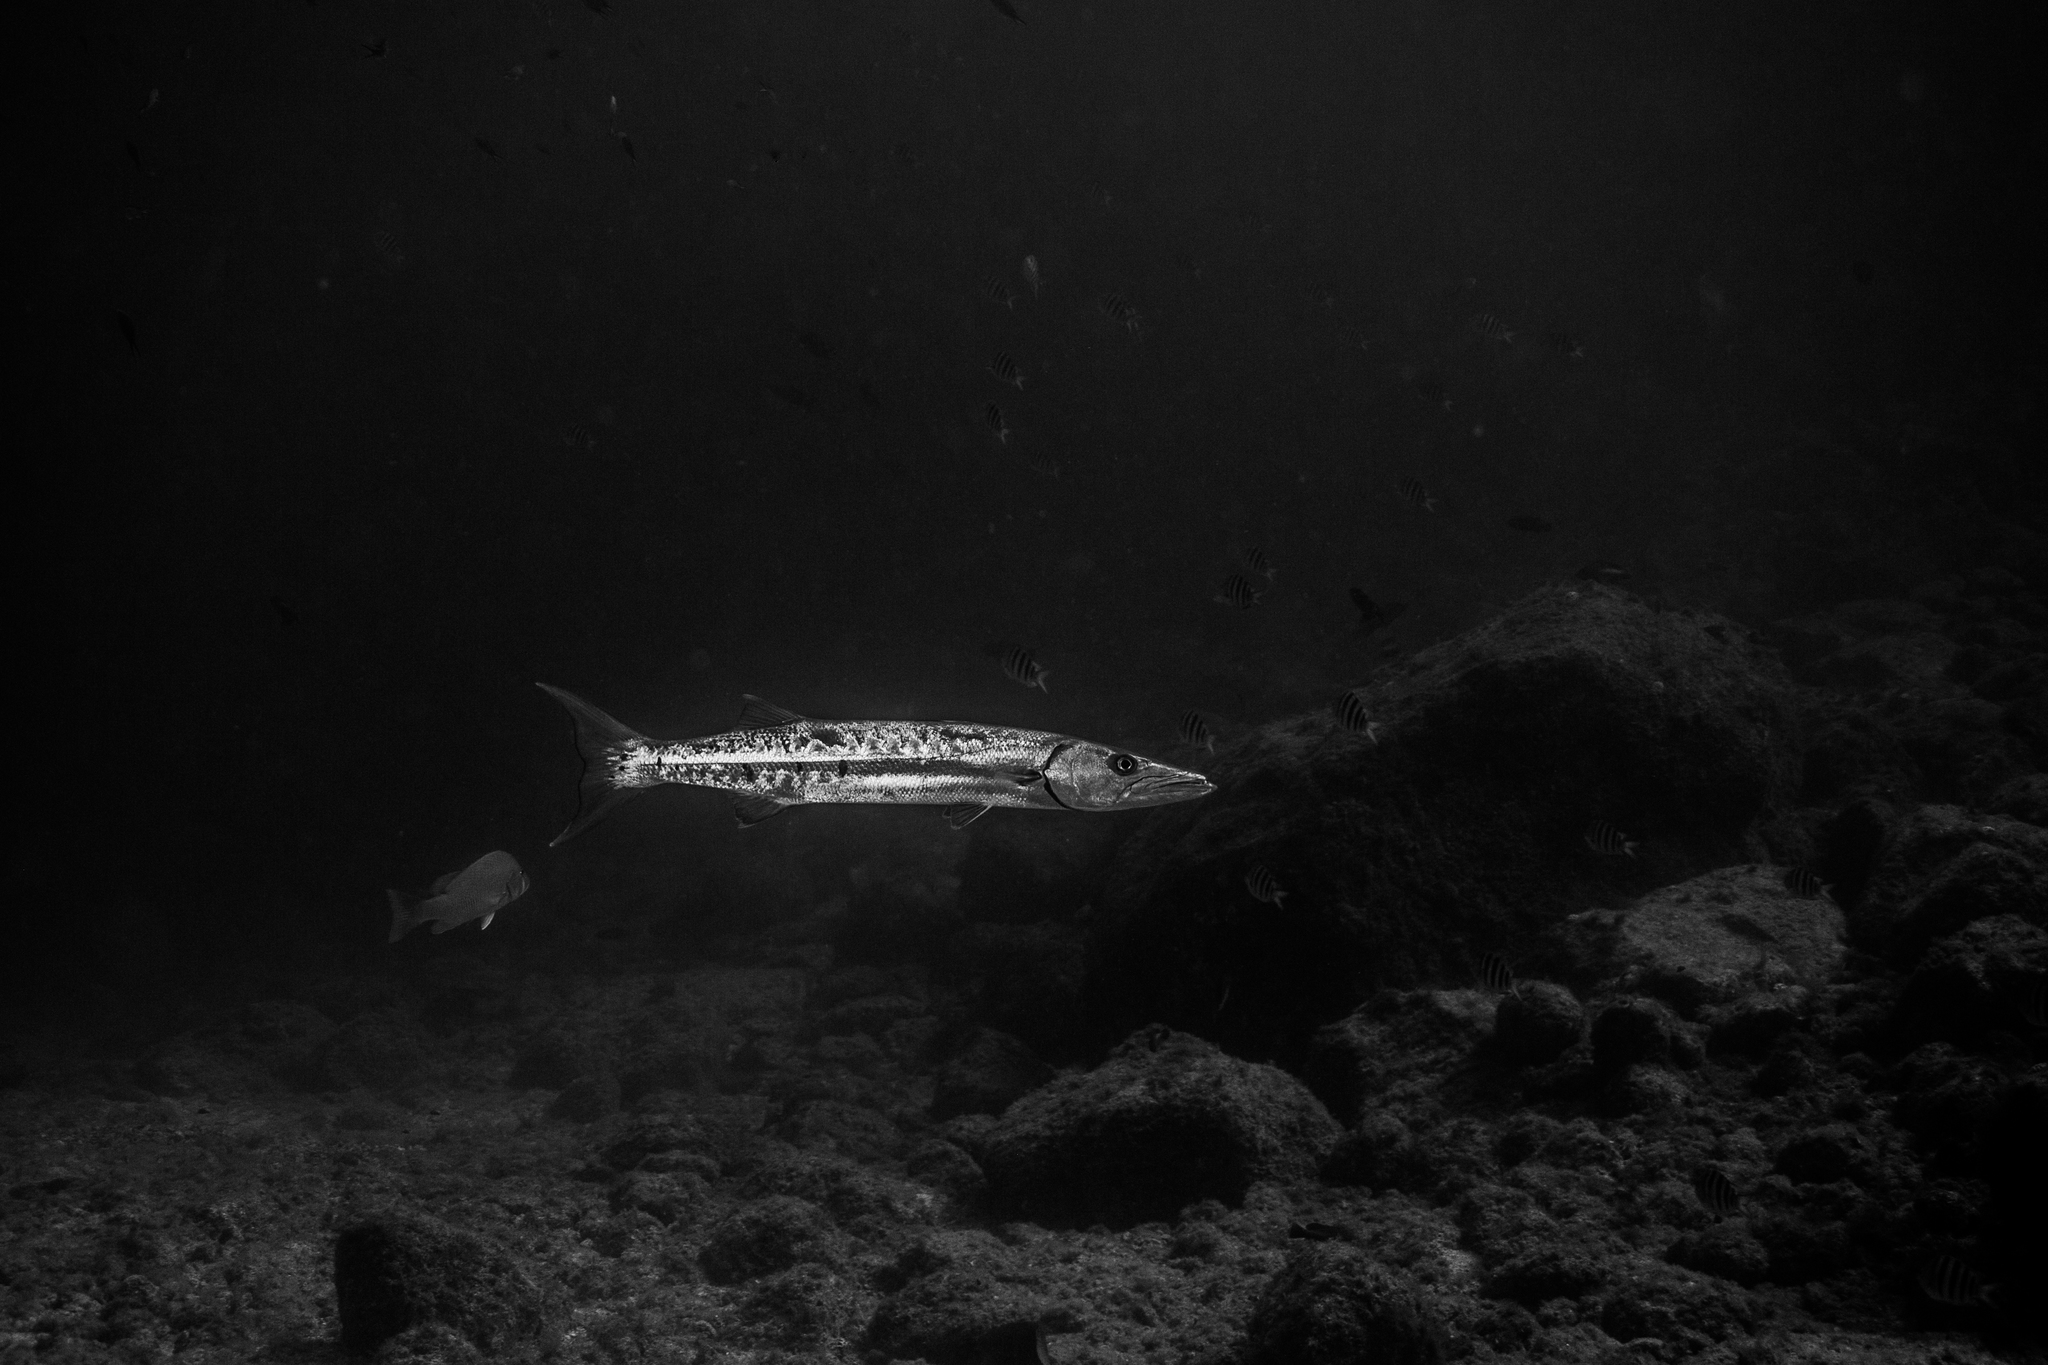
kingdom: Animalia
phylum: Chordata
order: Perciformes
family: Sphyraenidae
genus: Sphyraena
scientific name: Sphyraena barracuda
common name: Great barracuda
